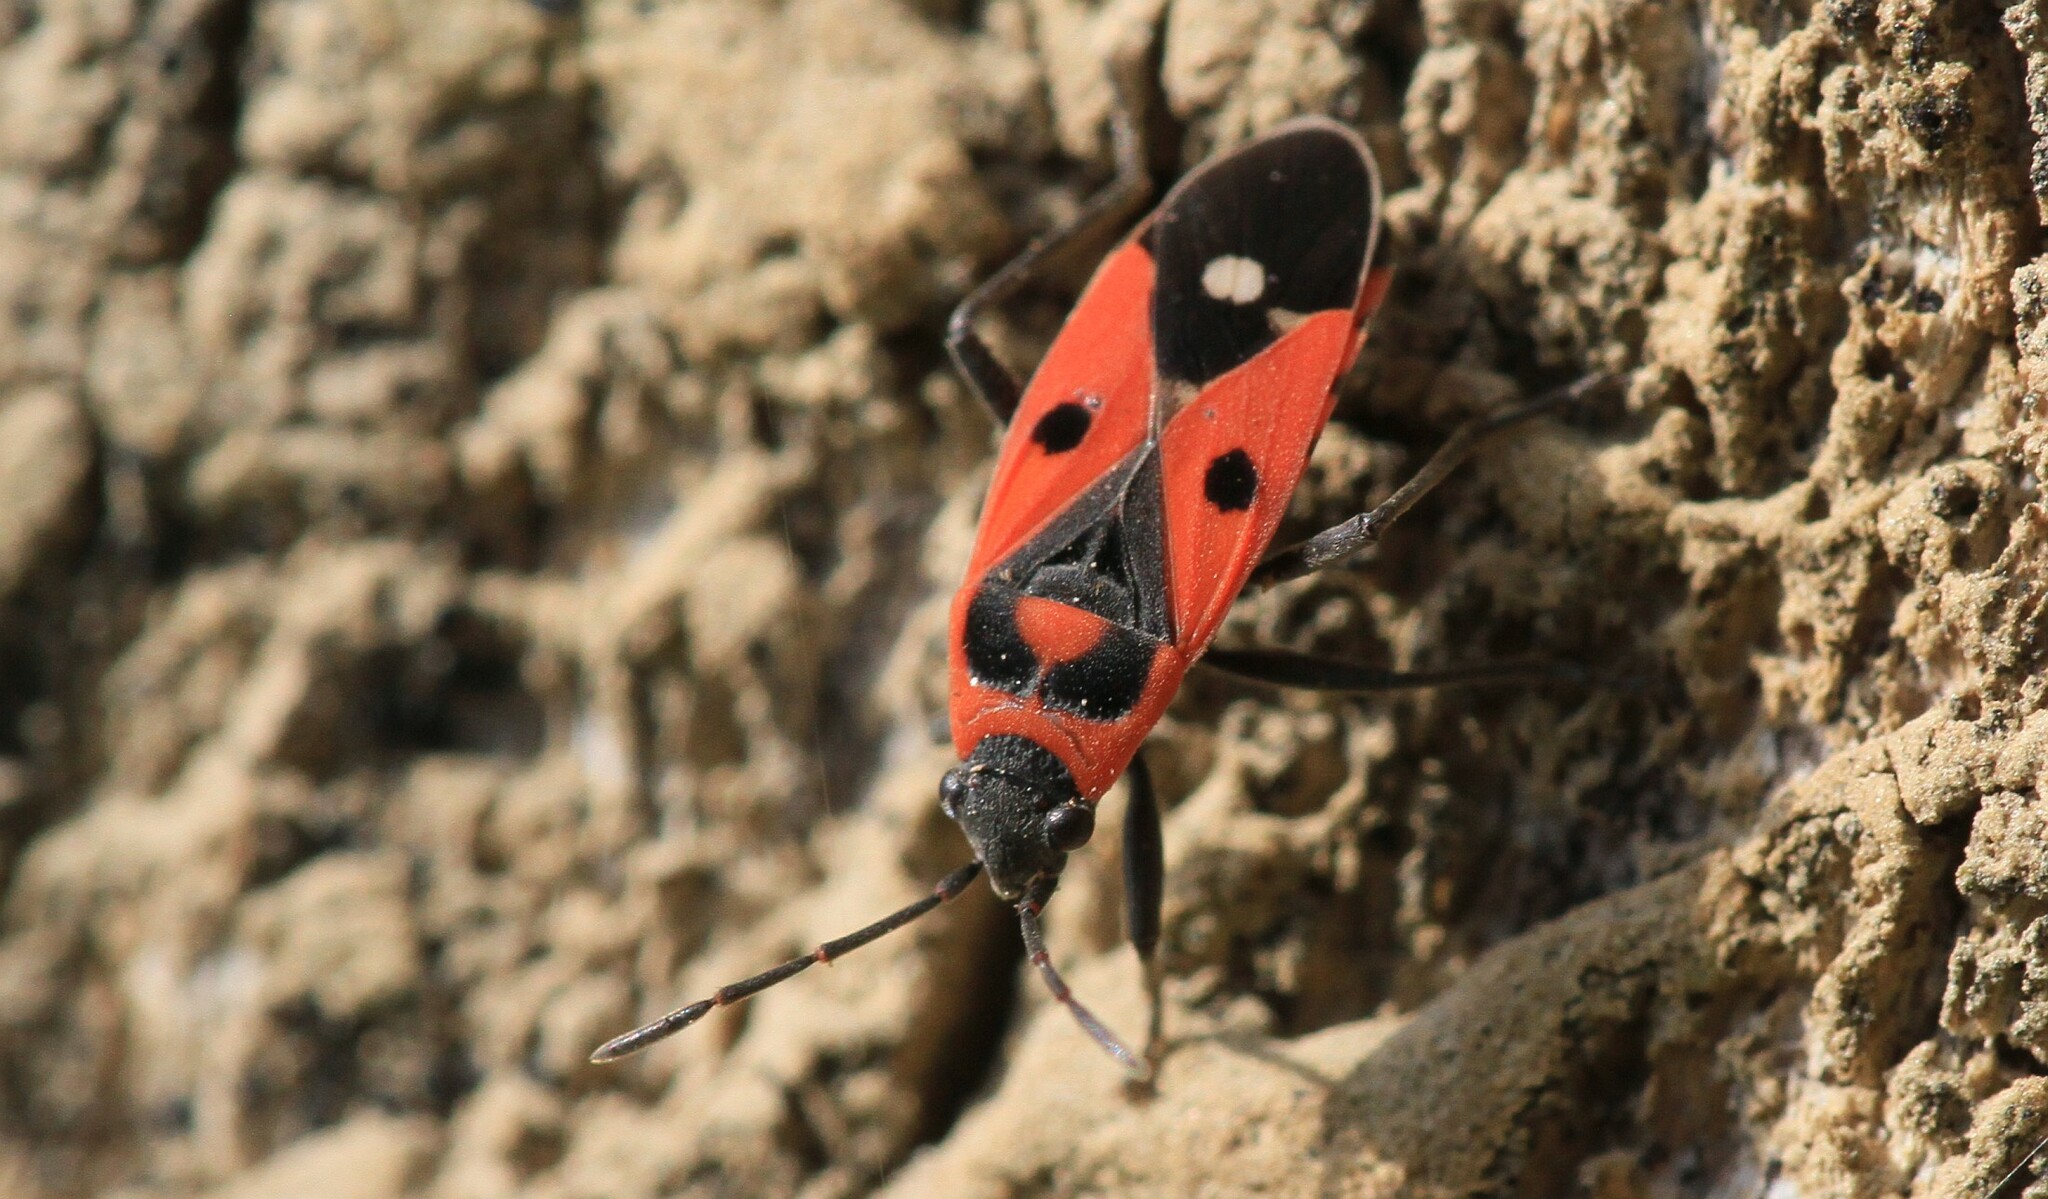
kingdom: Animalia
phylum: Arthropoda
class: Insecta
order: Hemiptera
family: Lygaeidae
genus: Melanocoryphus
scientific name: Melanocoryphus albomaculatus
